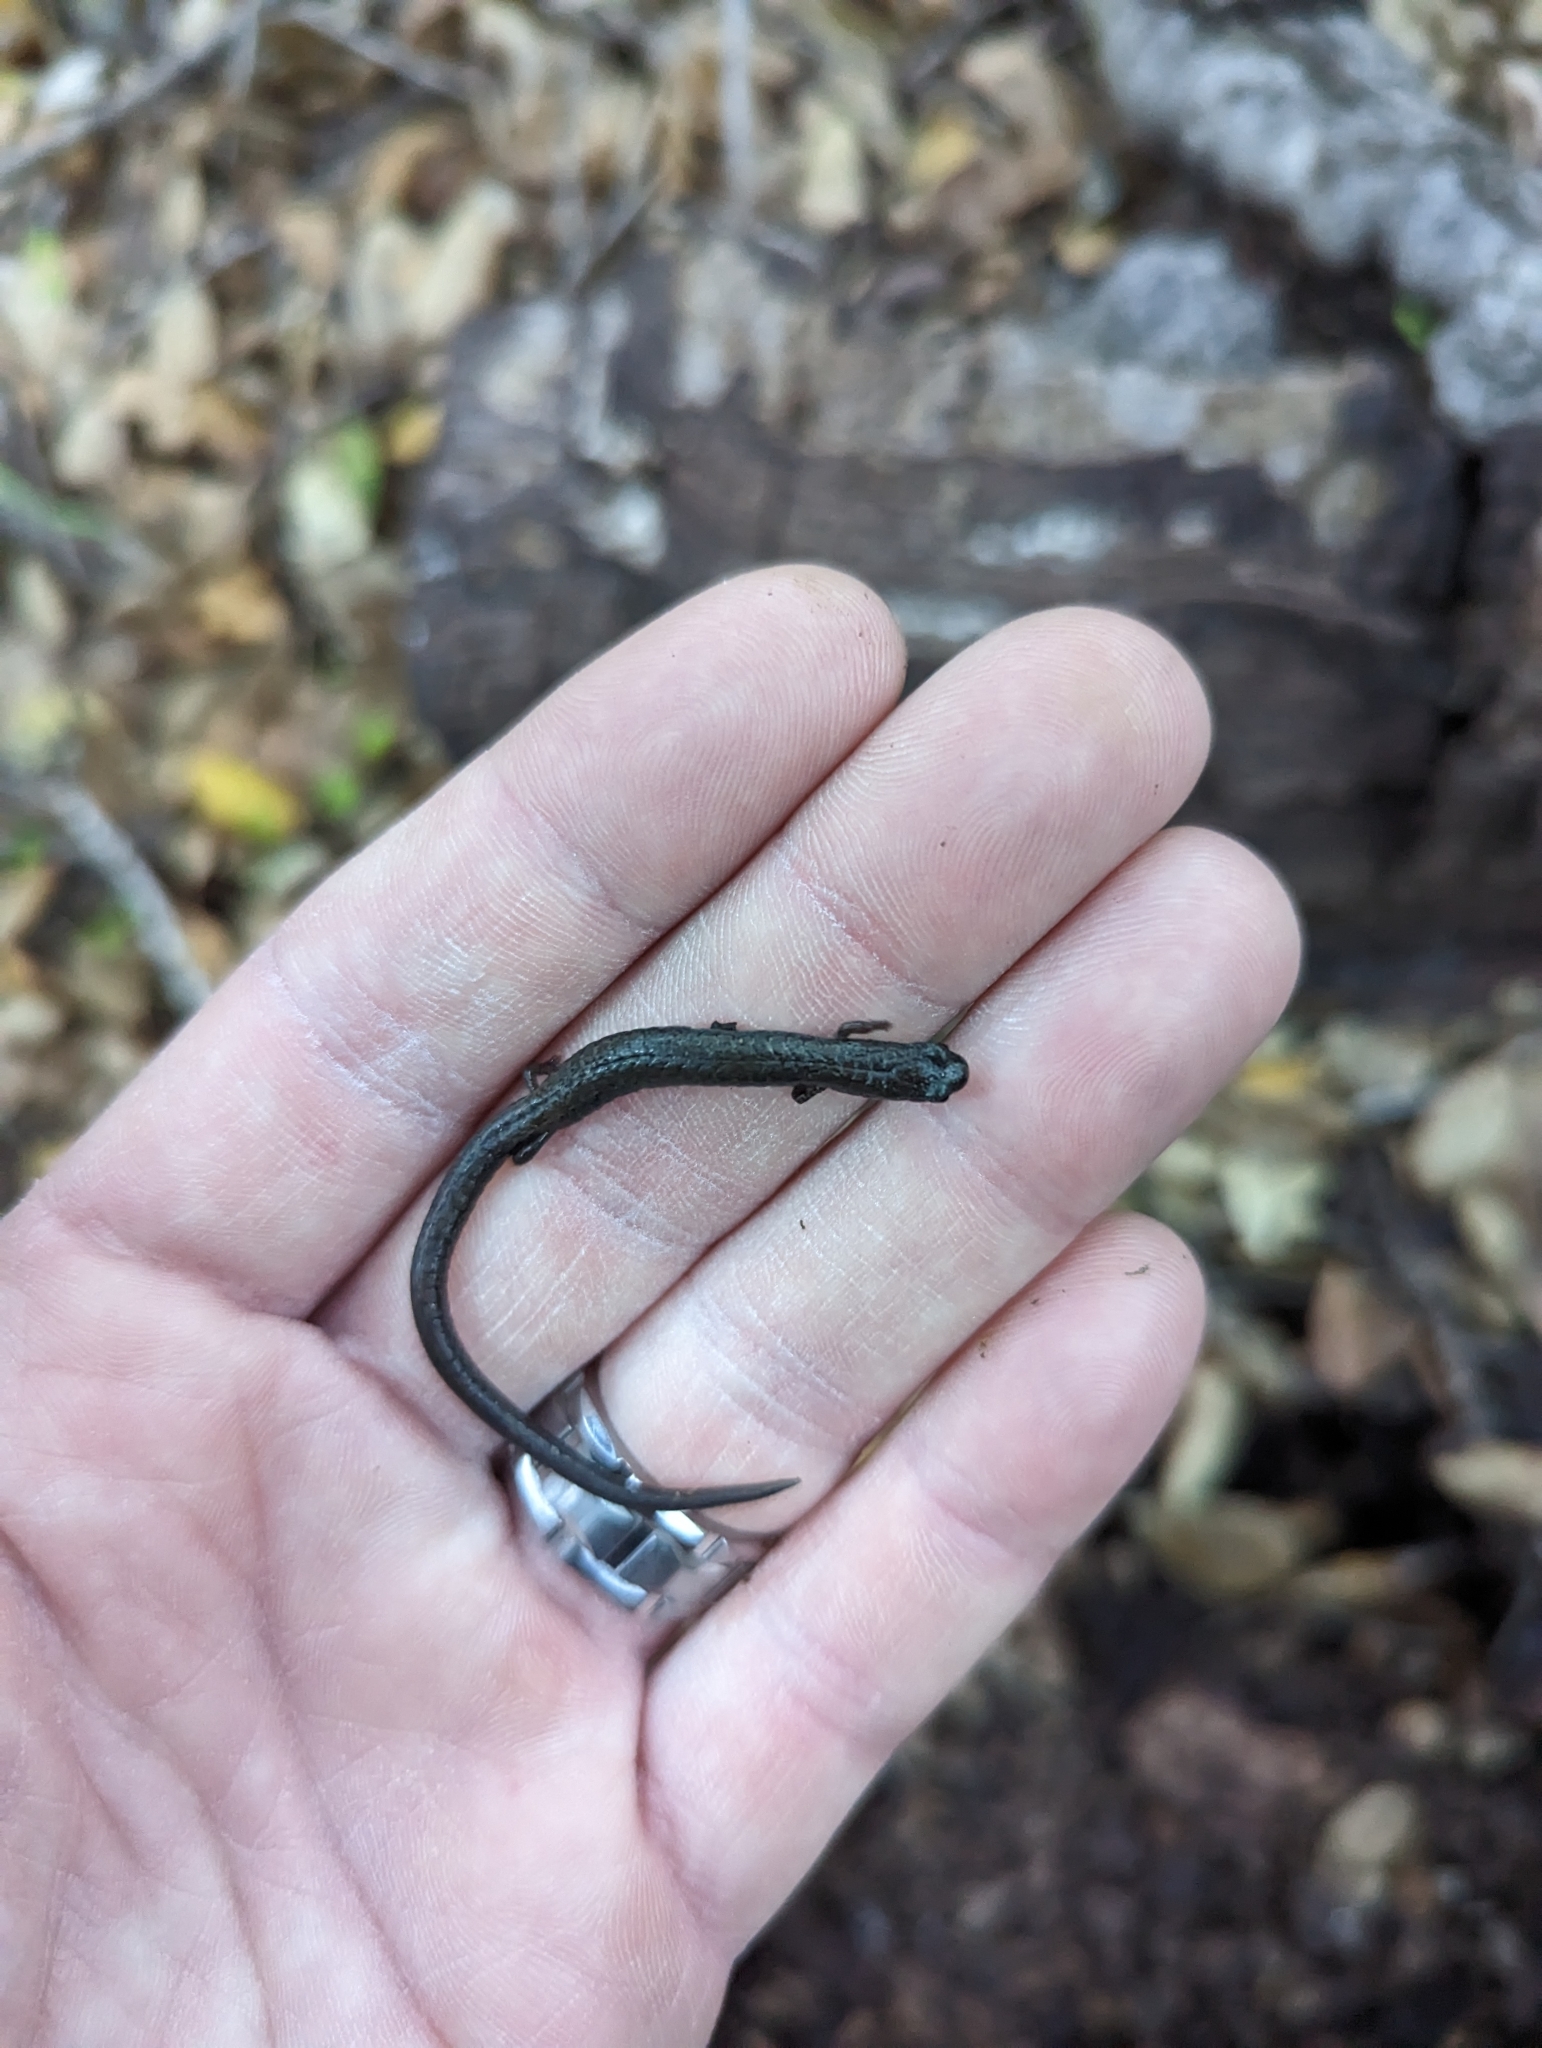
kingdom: Animalia
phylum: Chordata
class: Amphibia
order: Caudata
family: Plethodontidae
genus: Batrachoseps
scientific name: Batrachoseps nigriventris
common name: Black-bellied slender salamander
